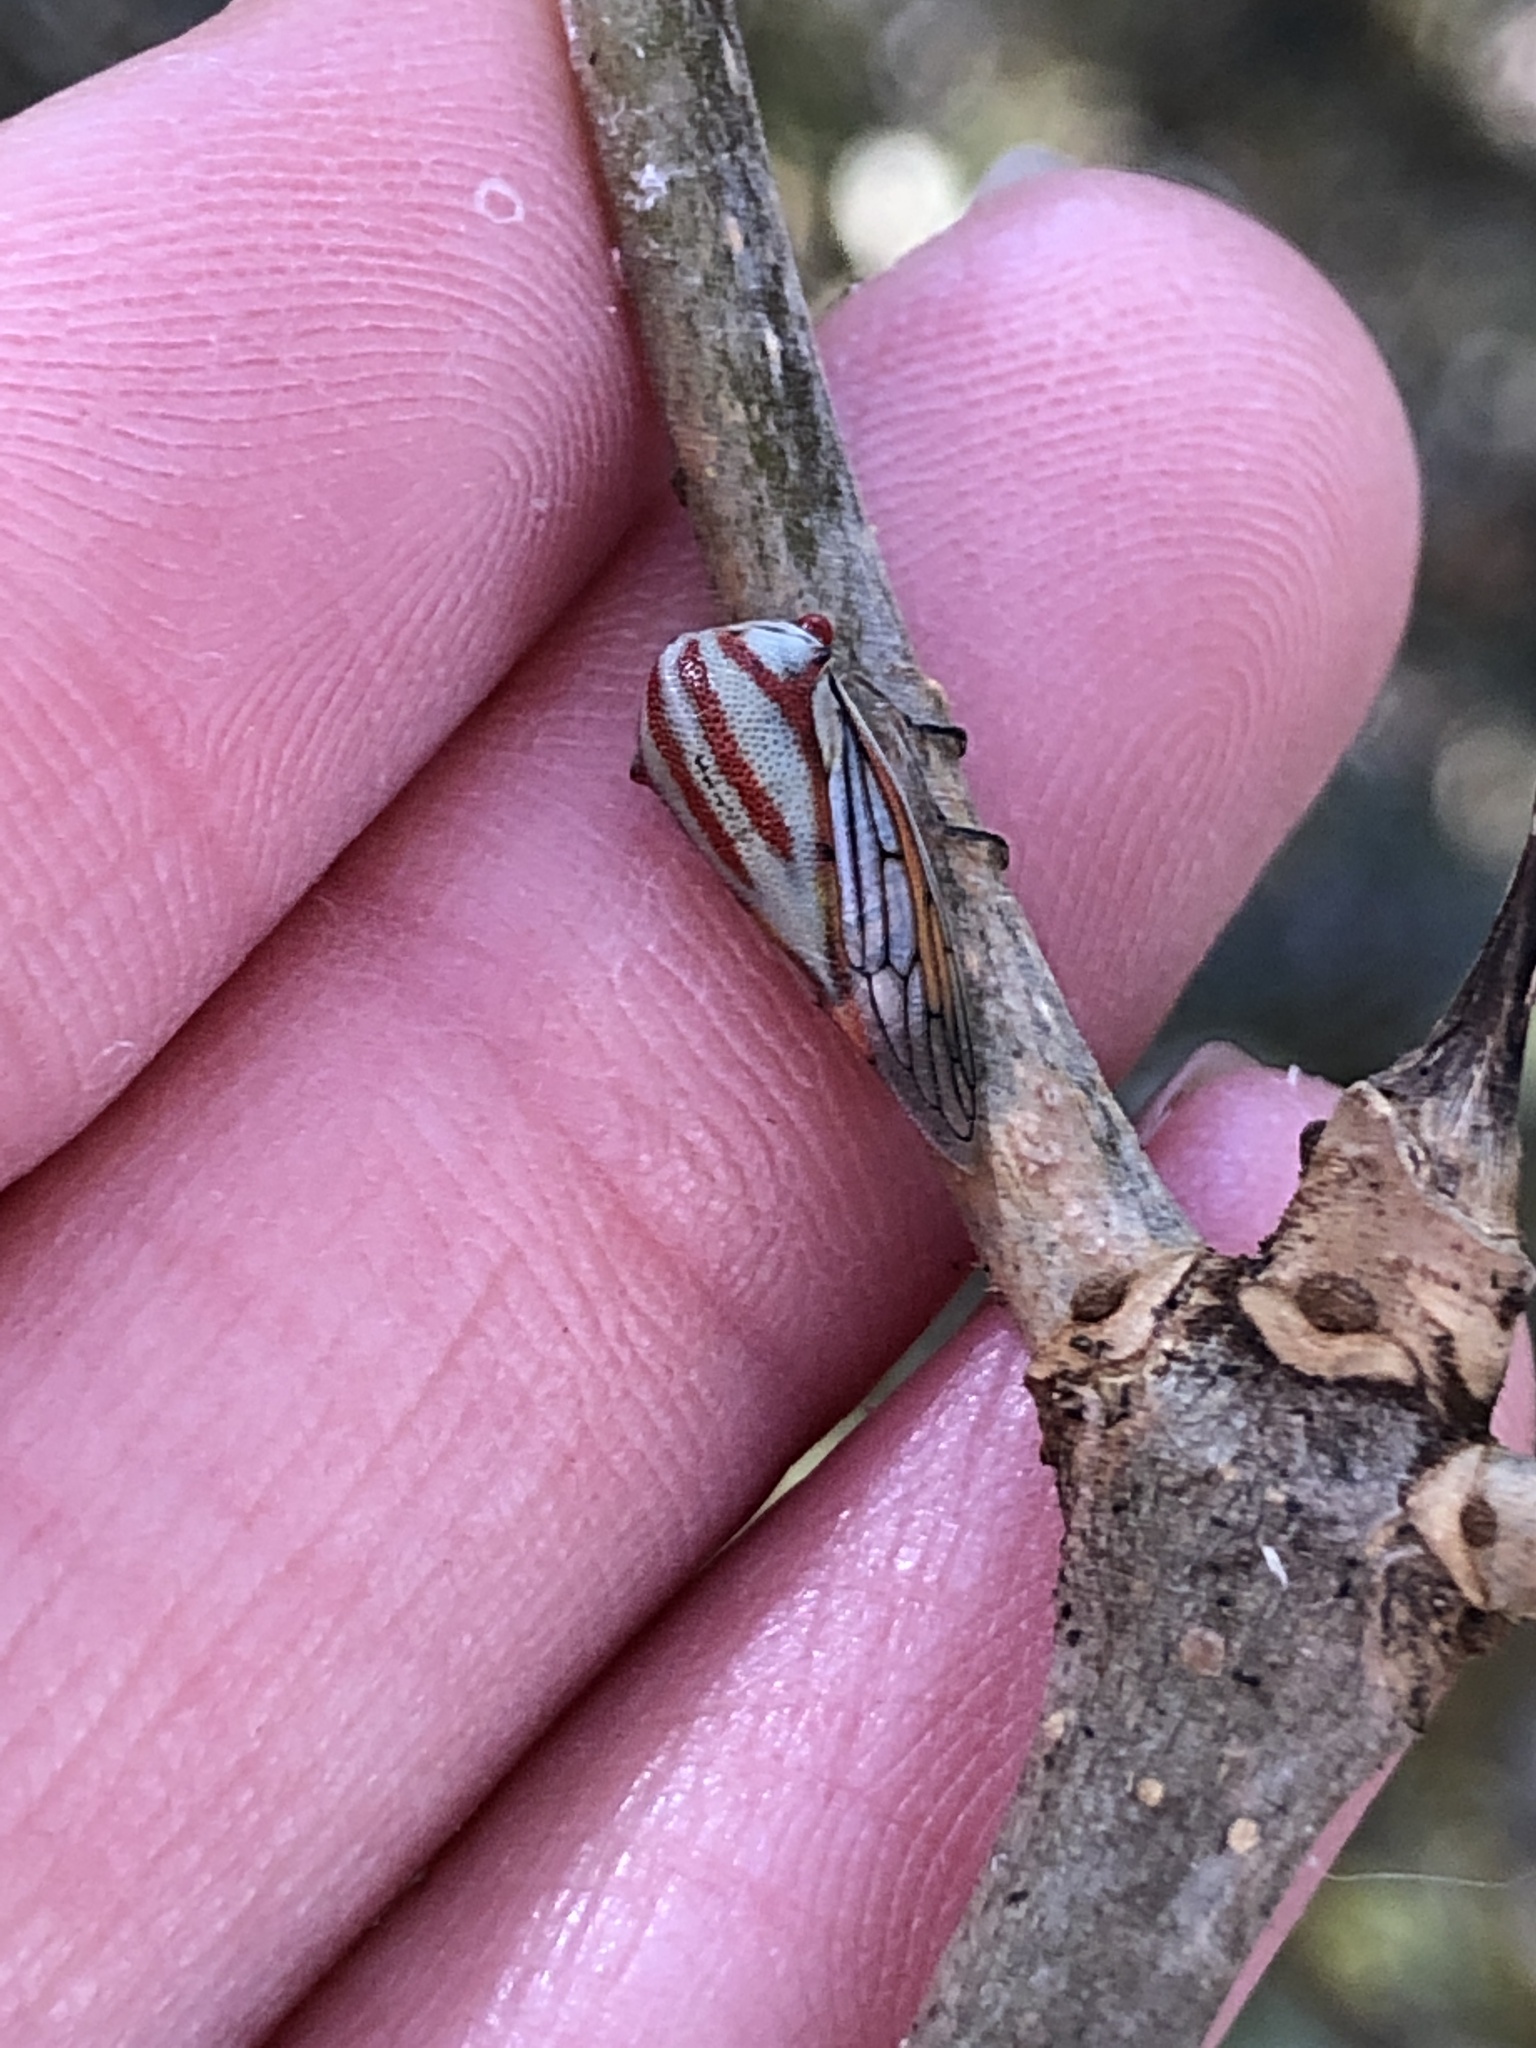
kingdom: Animalia
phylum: Arthropoda
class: Insecta
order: Hemiptera
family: Membracidae
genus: Platycotis
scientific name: Platycotis vittatus
